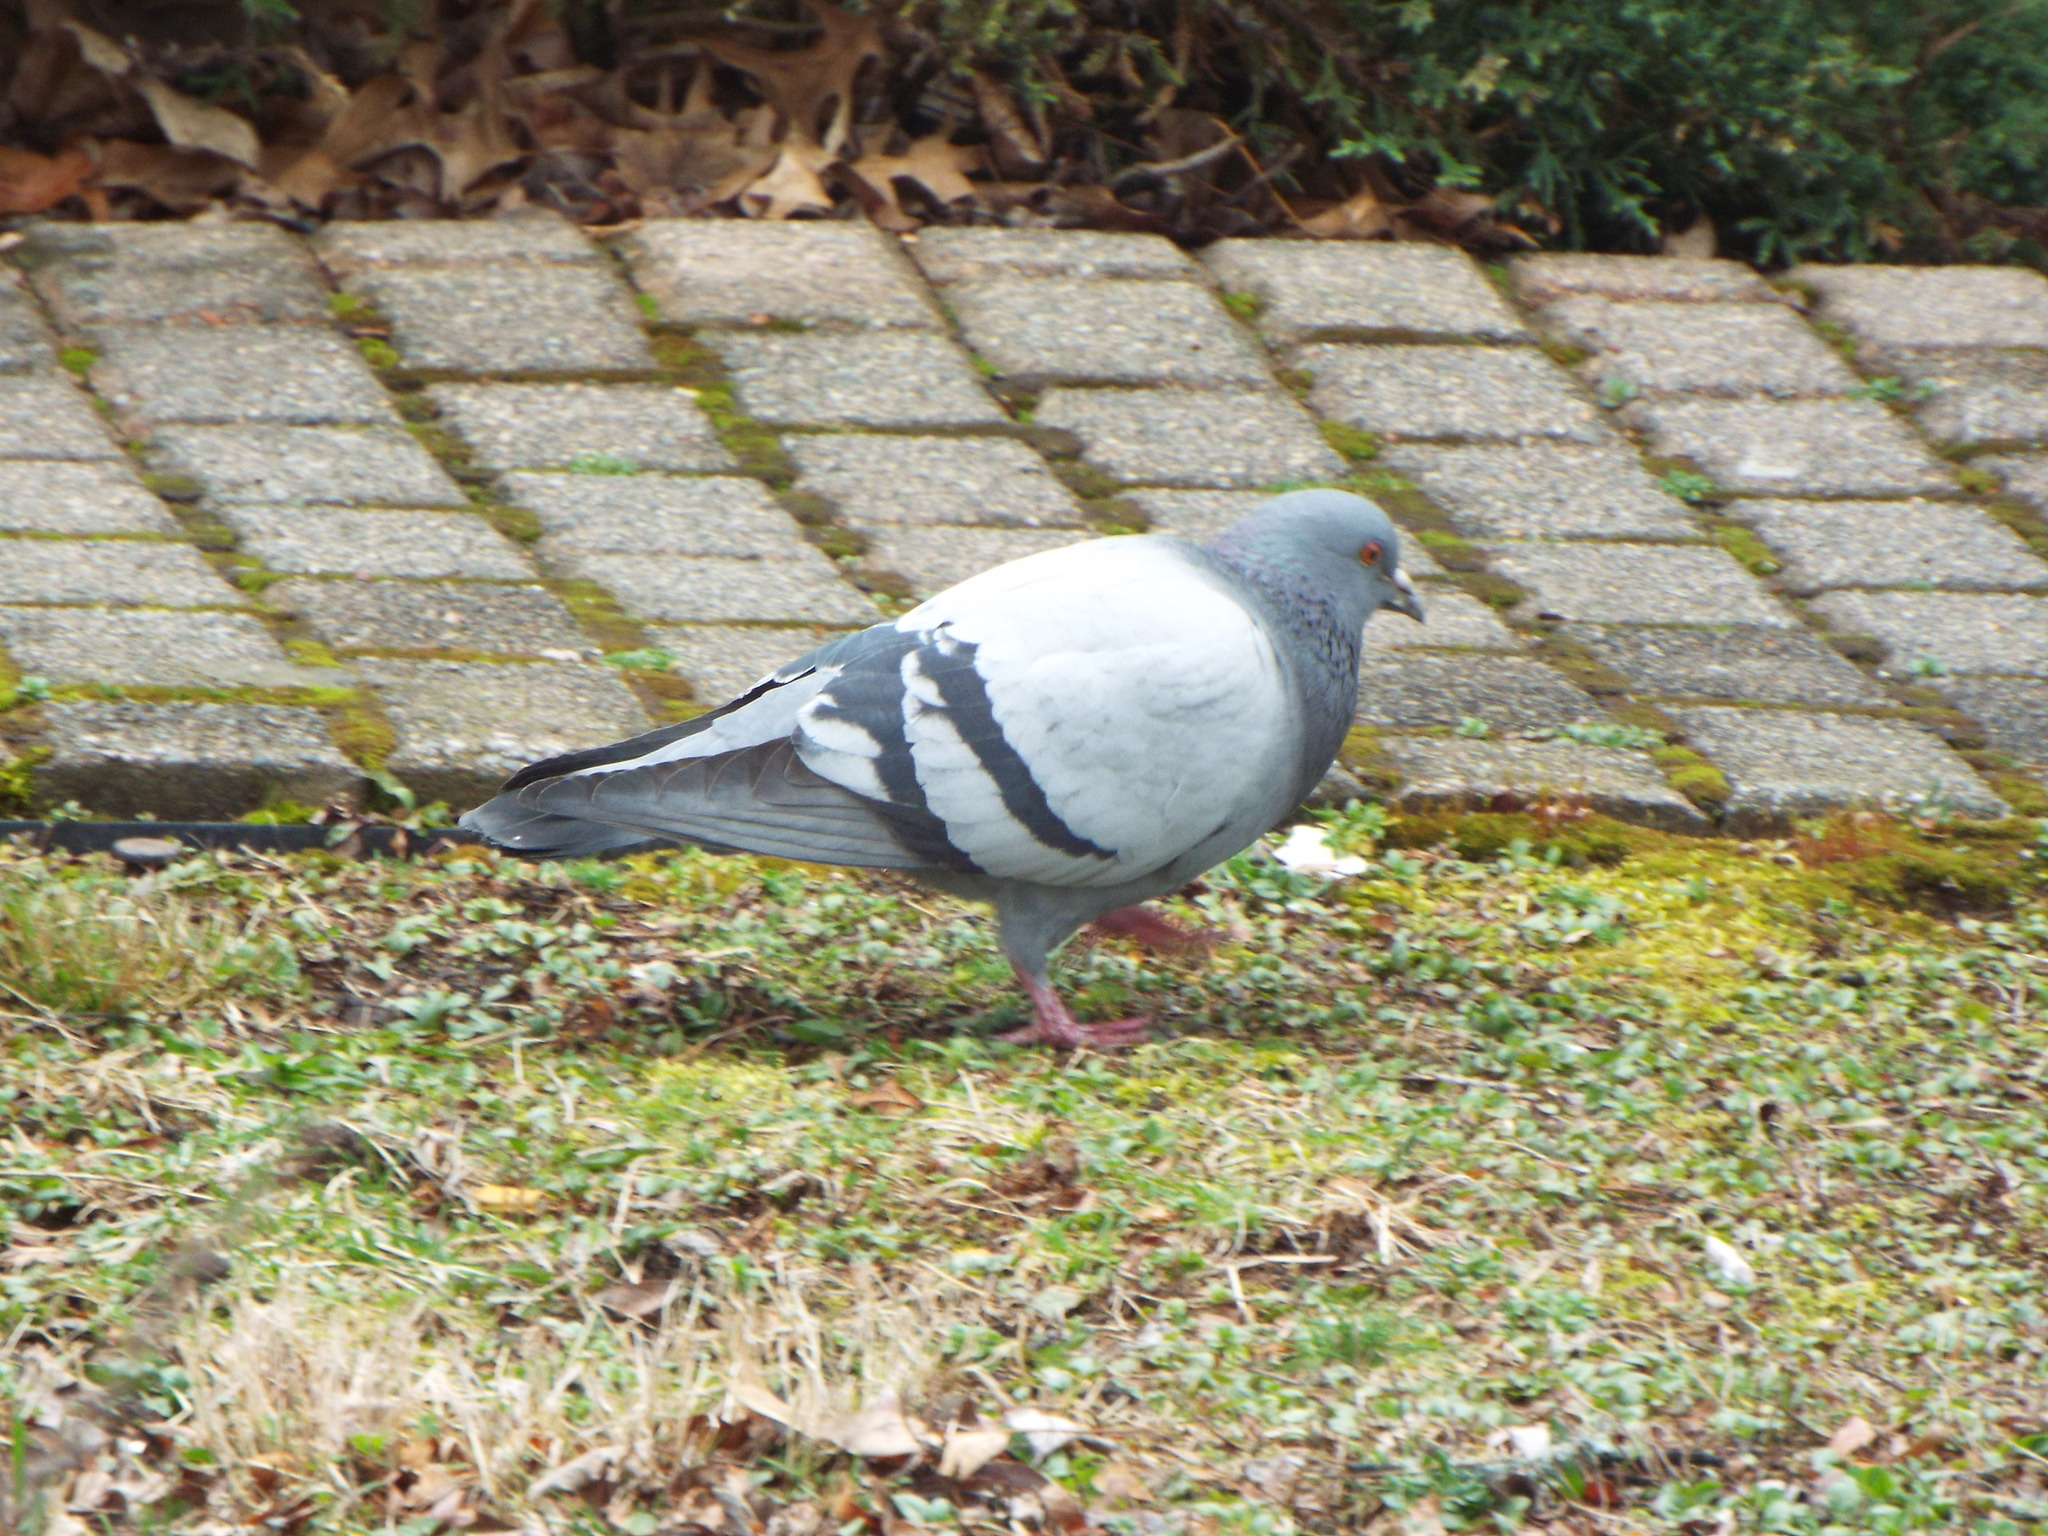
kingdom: Animalia
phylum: Chordata
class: Aves
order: Columbiformes
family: Columbidae
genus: Columba
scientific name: Columba livia
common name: Rock pigeon
